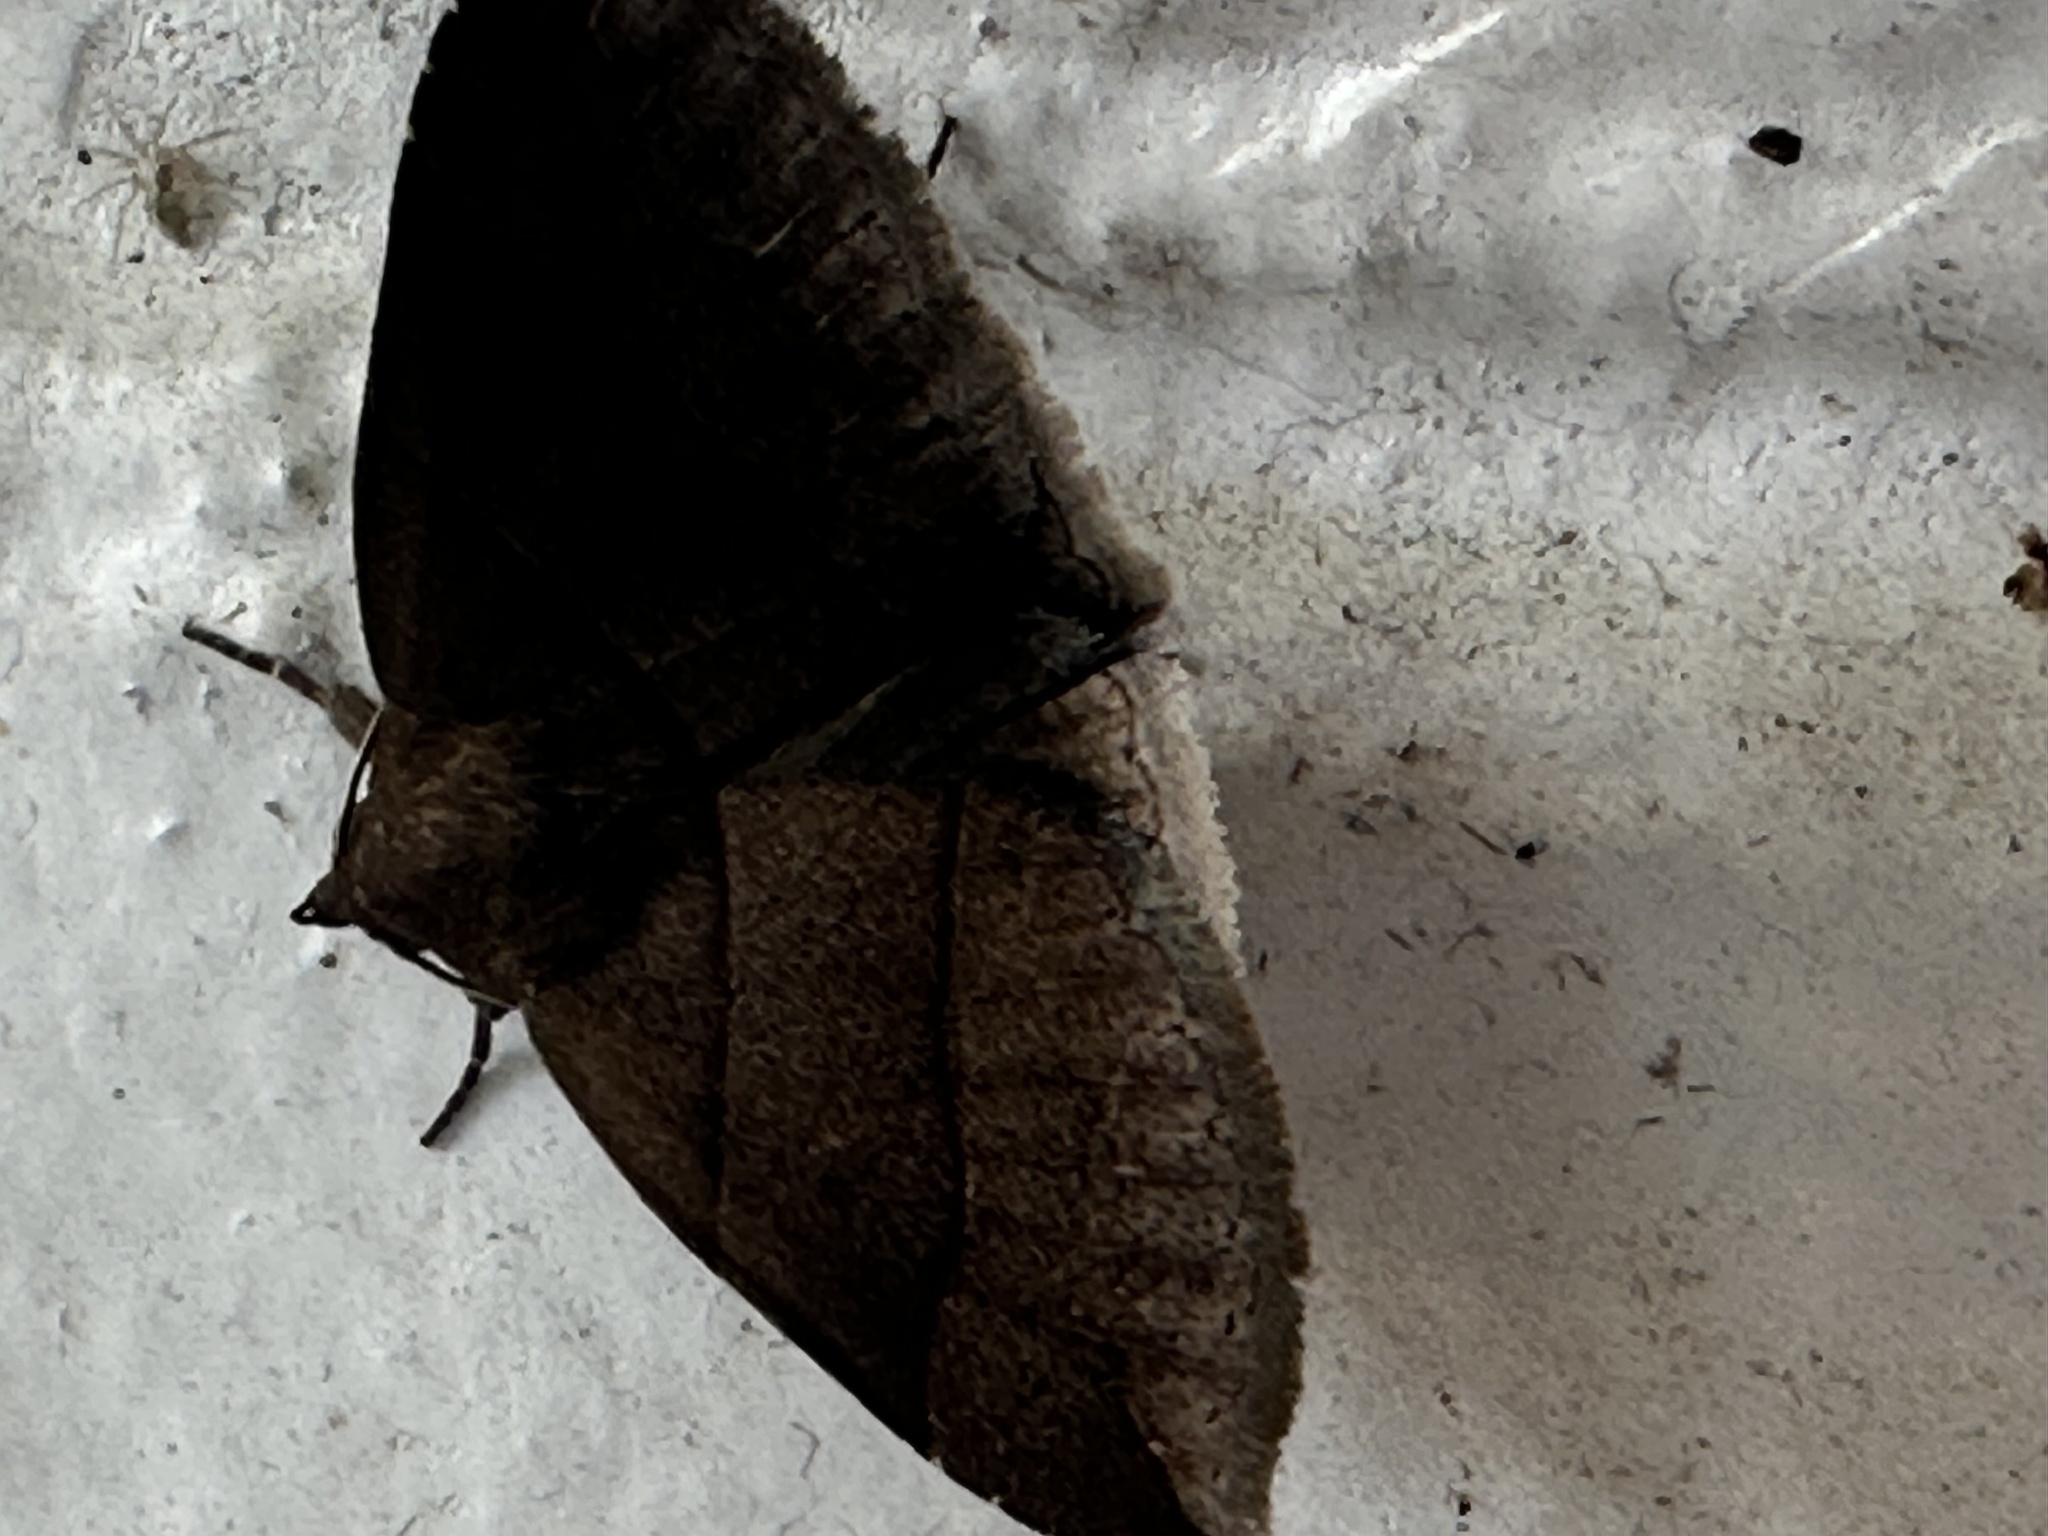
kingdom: Animalia
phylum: Arthropoda
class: Insecta
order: Lepidoptera
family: Erebidae
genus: Parallelia
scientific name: Parallelia bistriaris
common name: Maple looper moth
